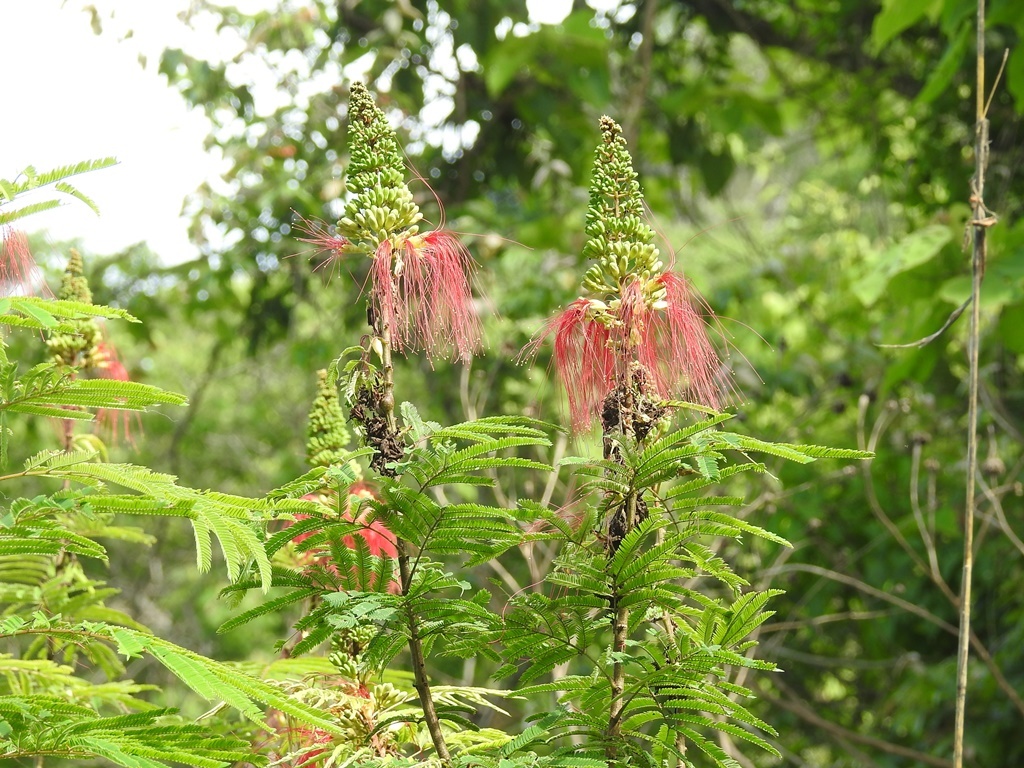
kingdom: Plantae
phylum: Tracheophyta
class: Magnoliopsida
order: Fabales
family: Fabaceae
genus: Calliandra
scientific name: Calliandra houstoniana
